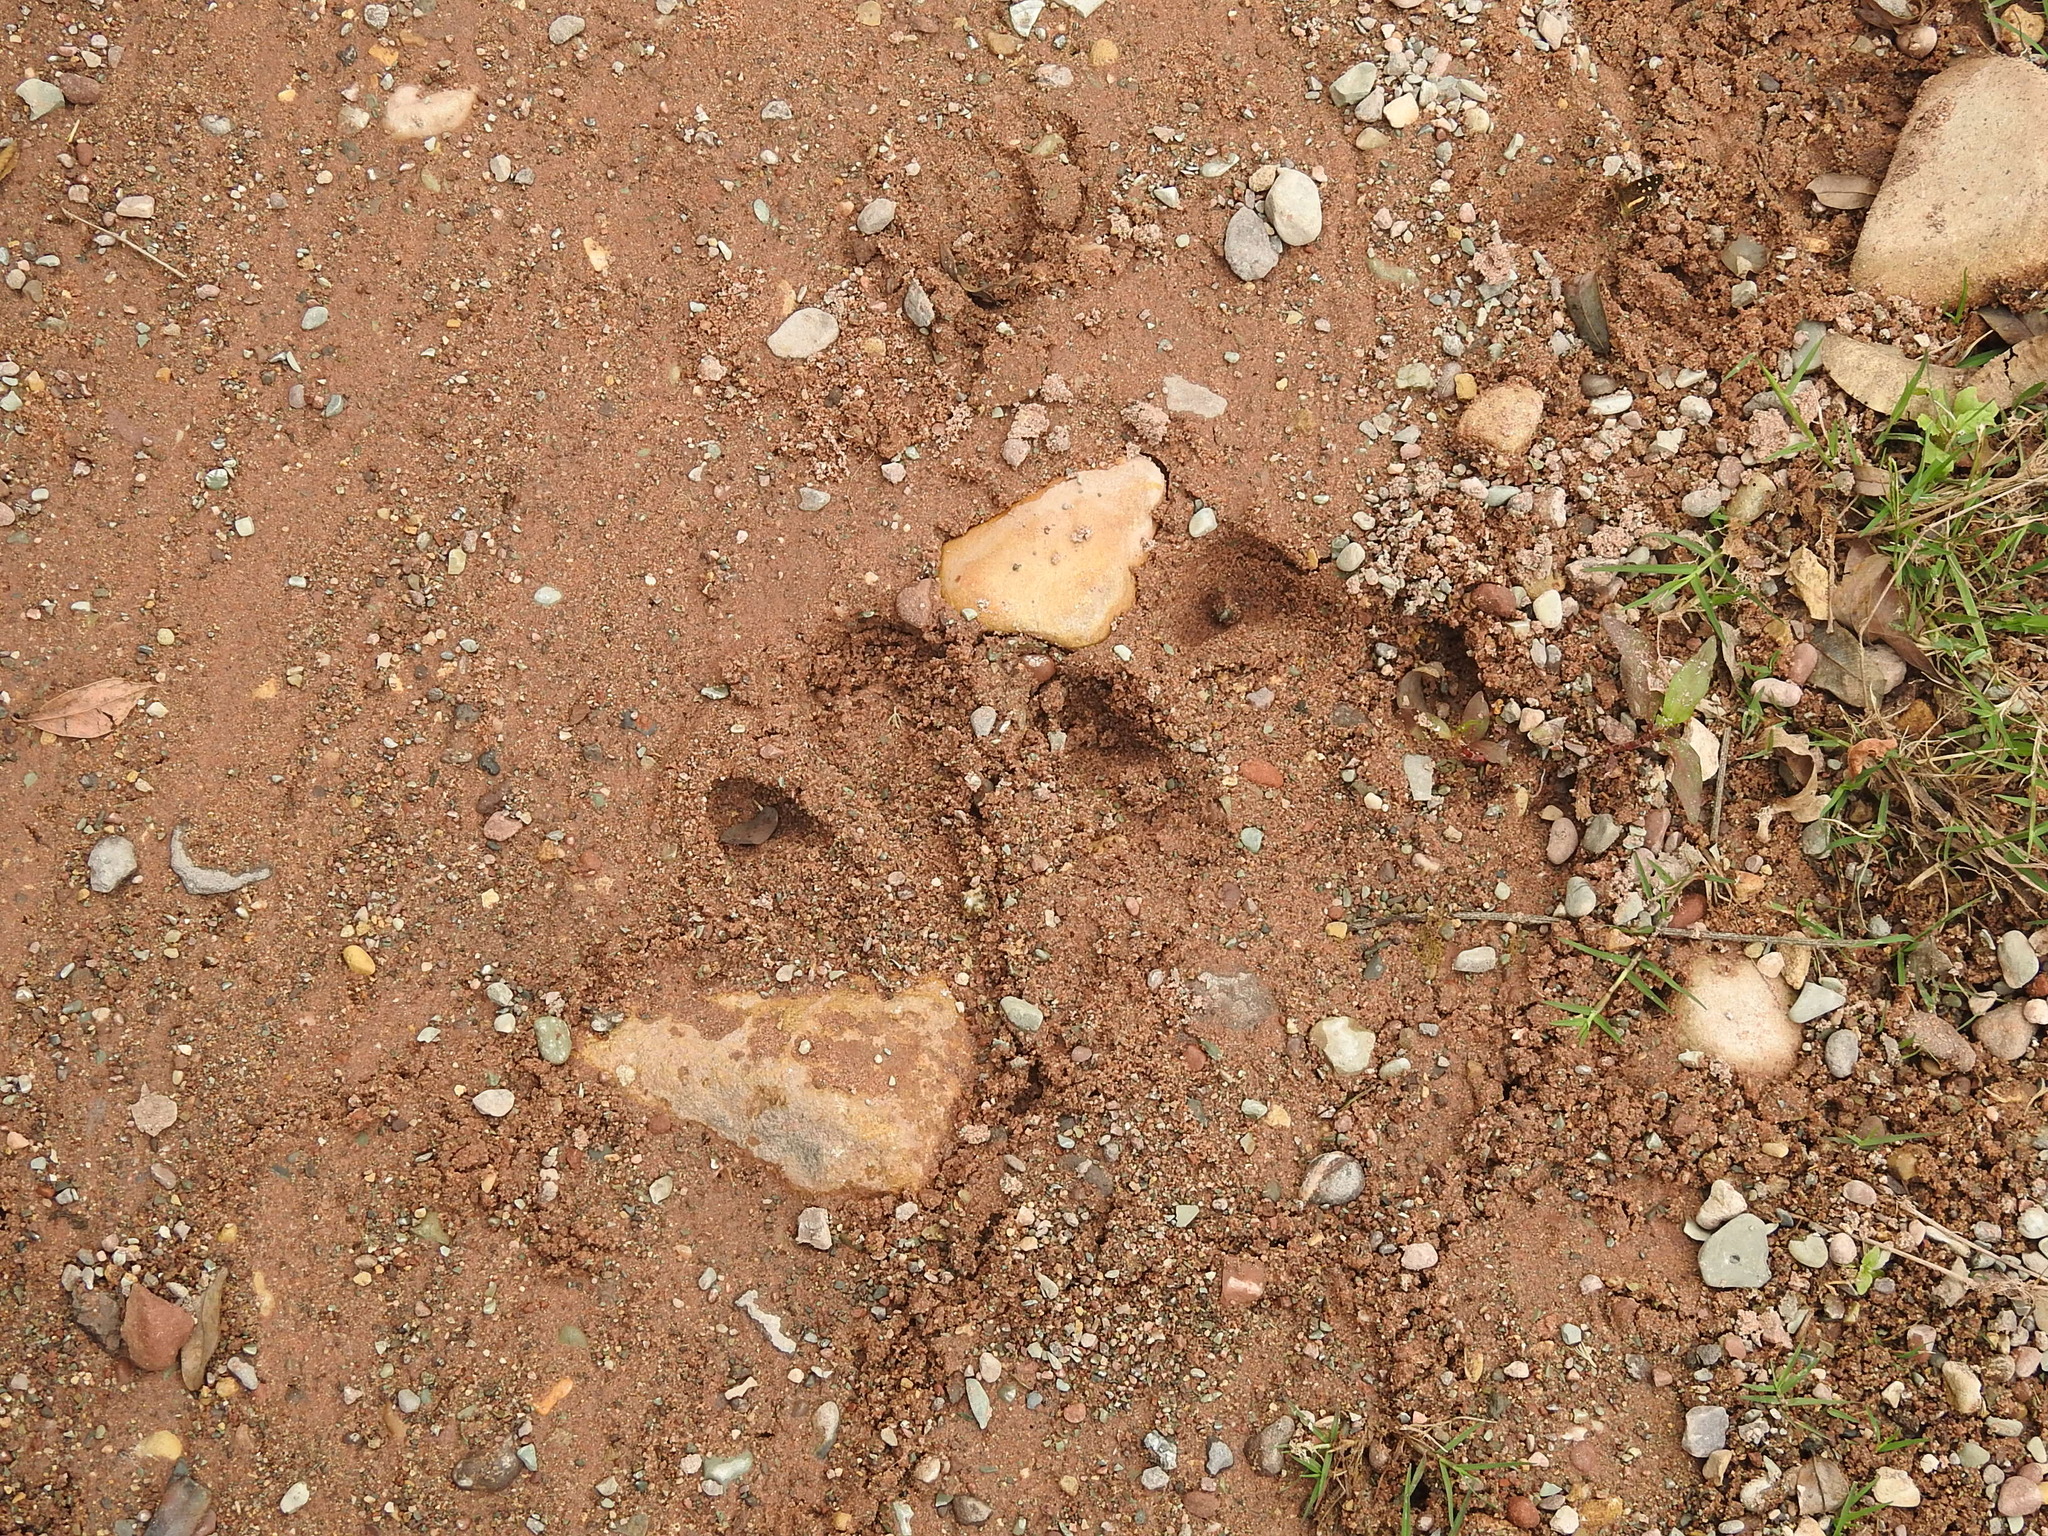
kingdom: Animalia
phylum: Chordata
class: Mammalia
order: Perissodactyla
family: Tapiridae
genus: Tapirus
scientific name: Tapirus terrestris
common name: Brazilian tapir
